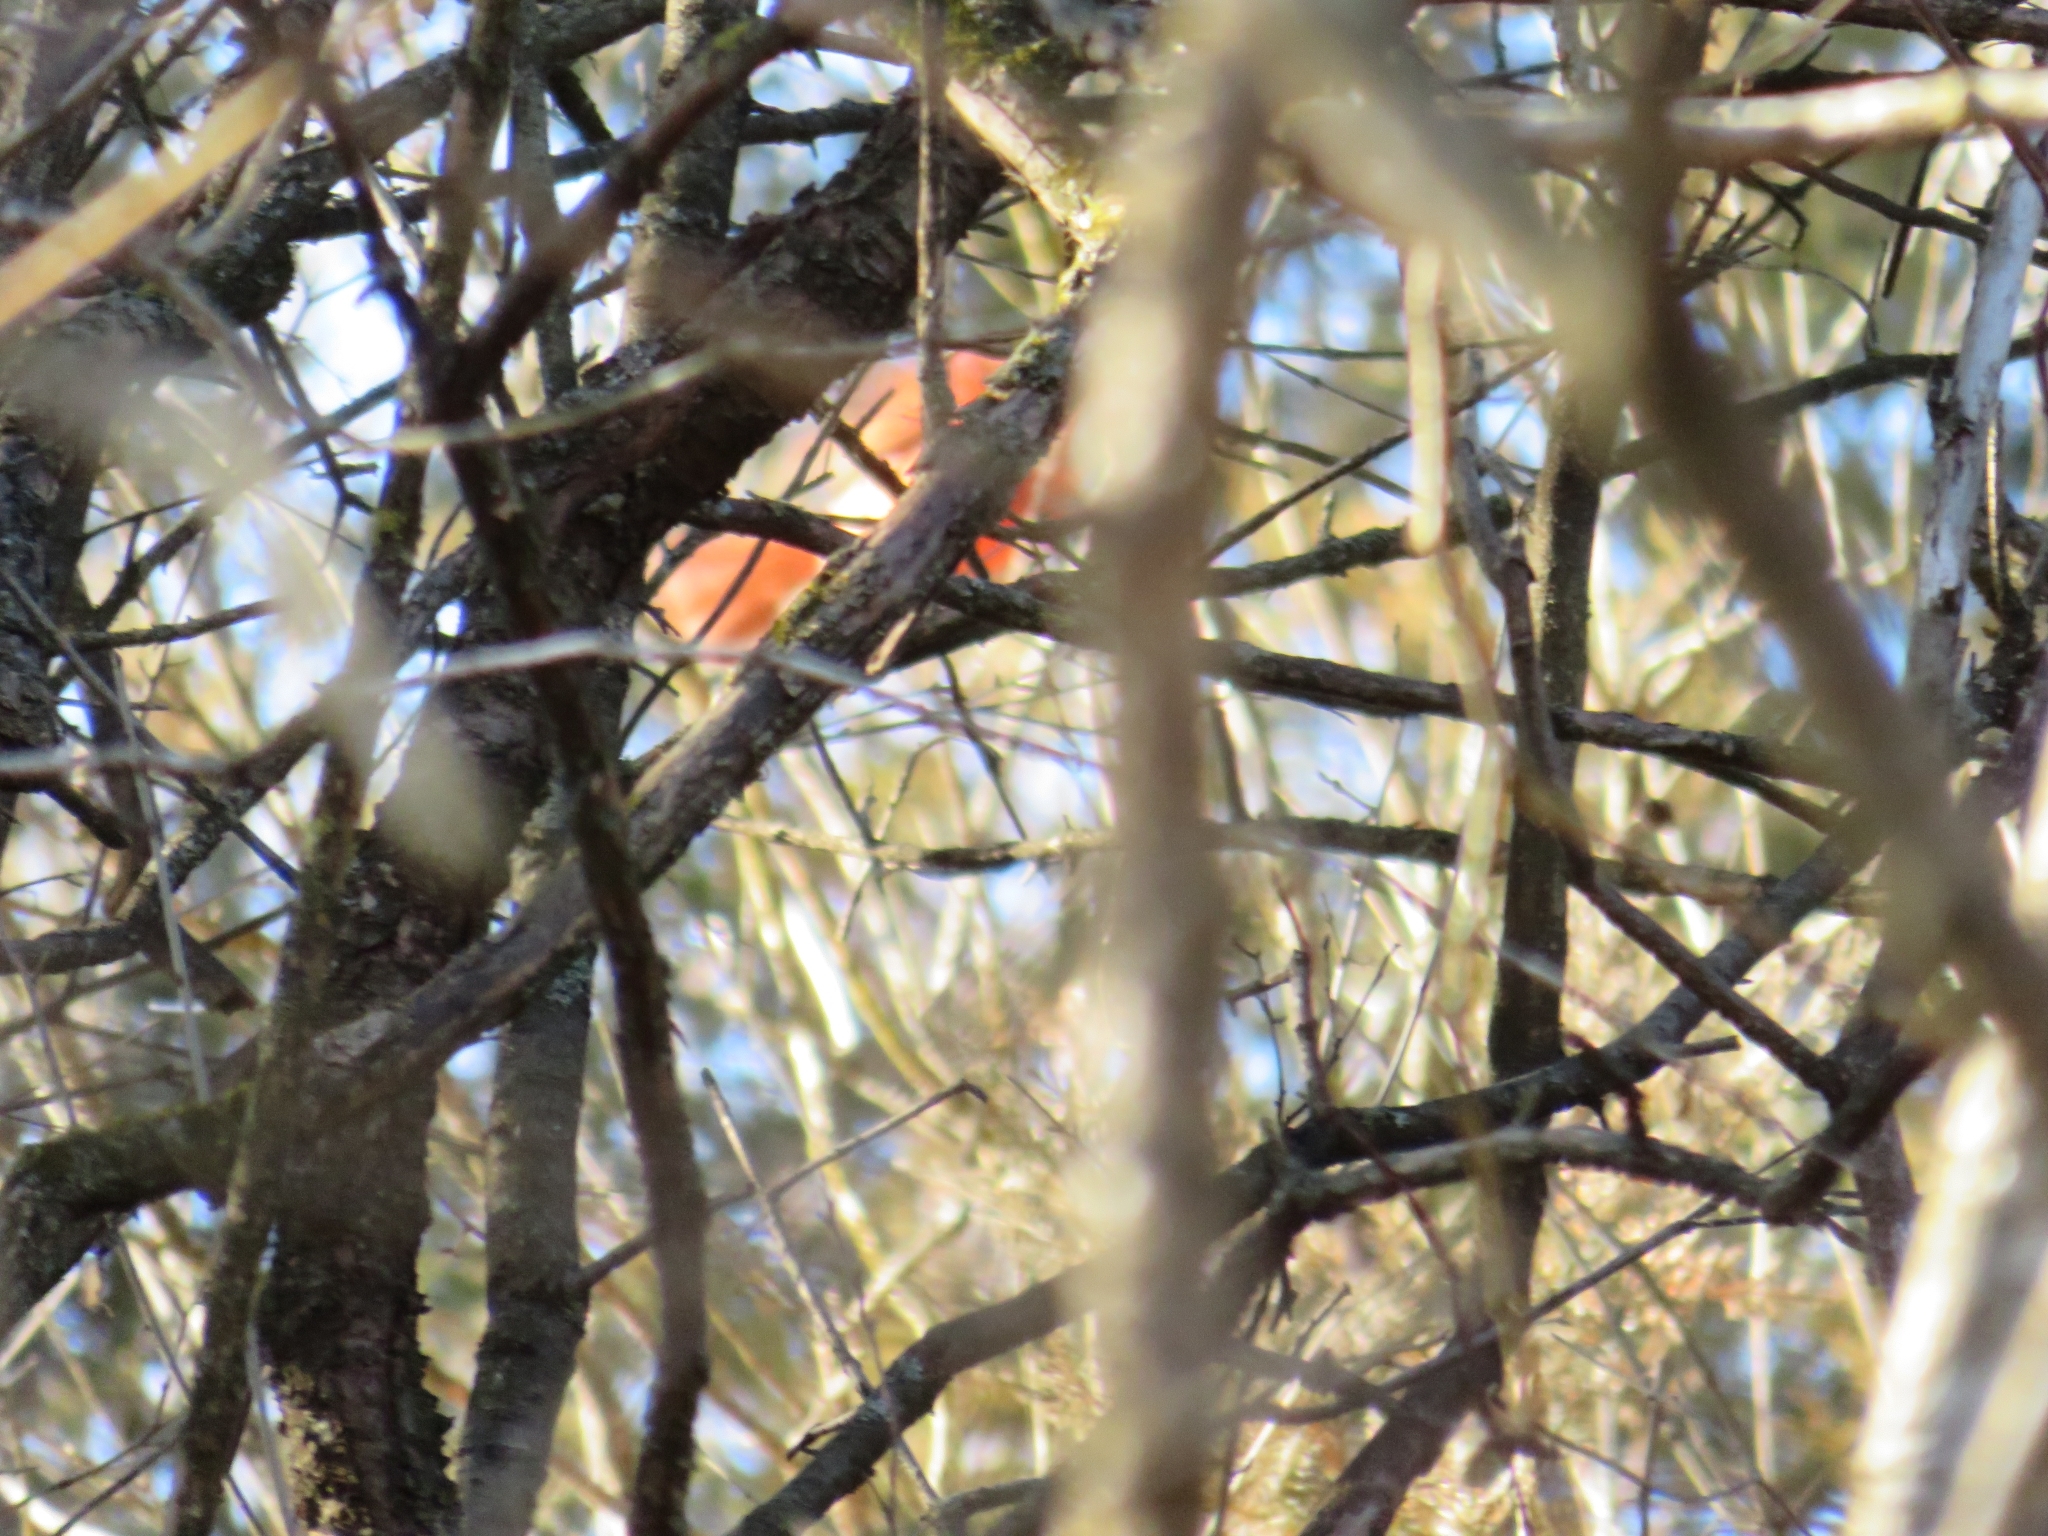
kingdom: Animalia
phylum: Chordata
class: Aves
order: Passeriformes
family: Cardinalidae
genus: Cardinalis
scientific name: Cardinalis cardinalis
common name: Northern cardinal
